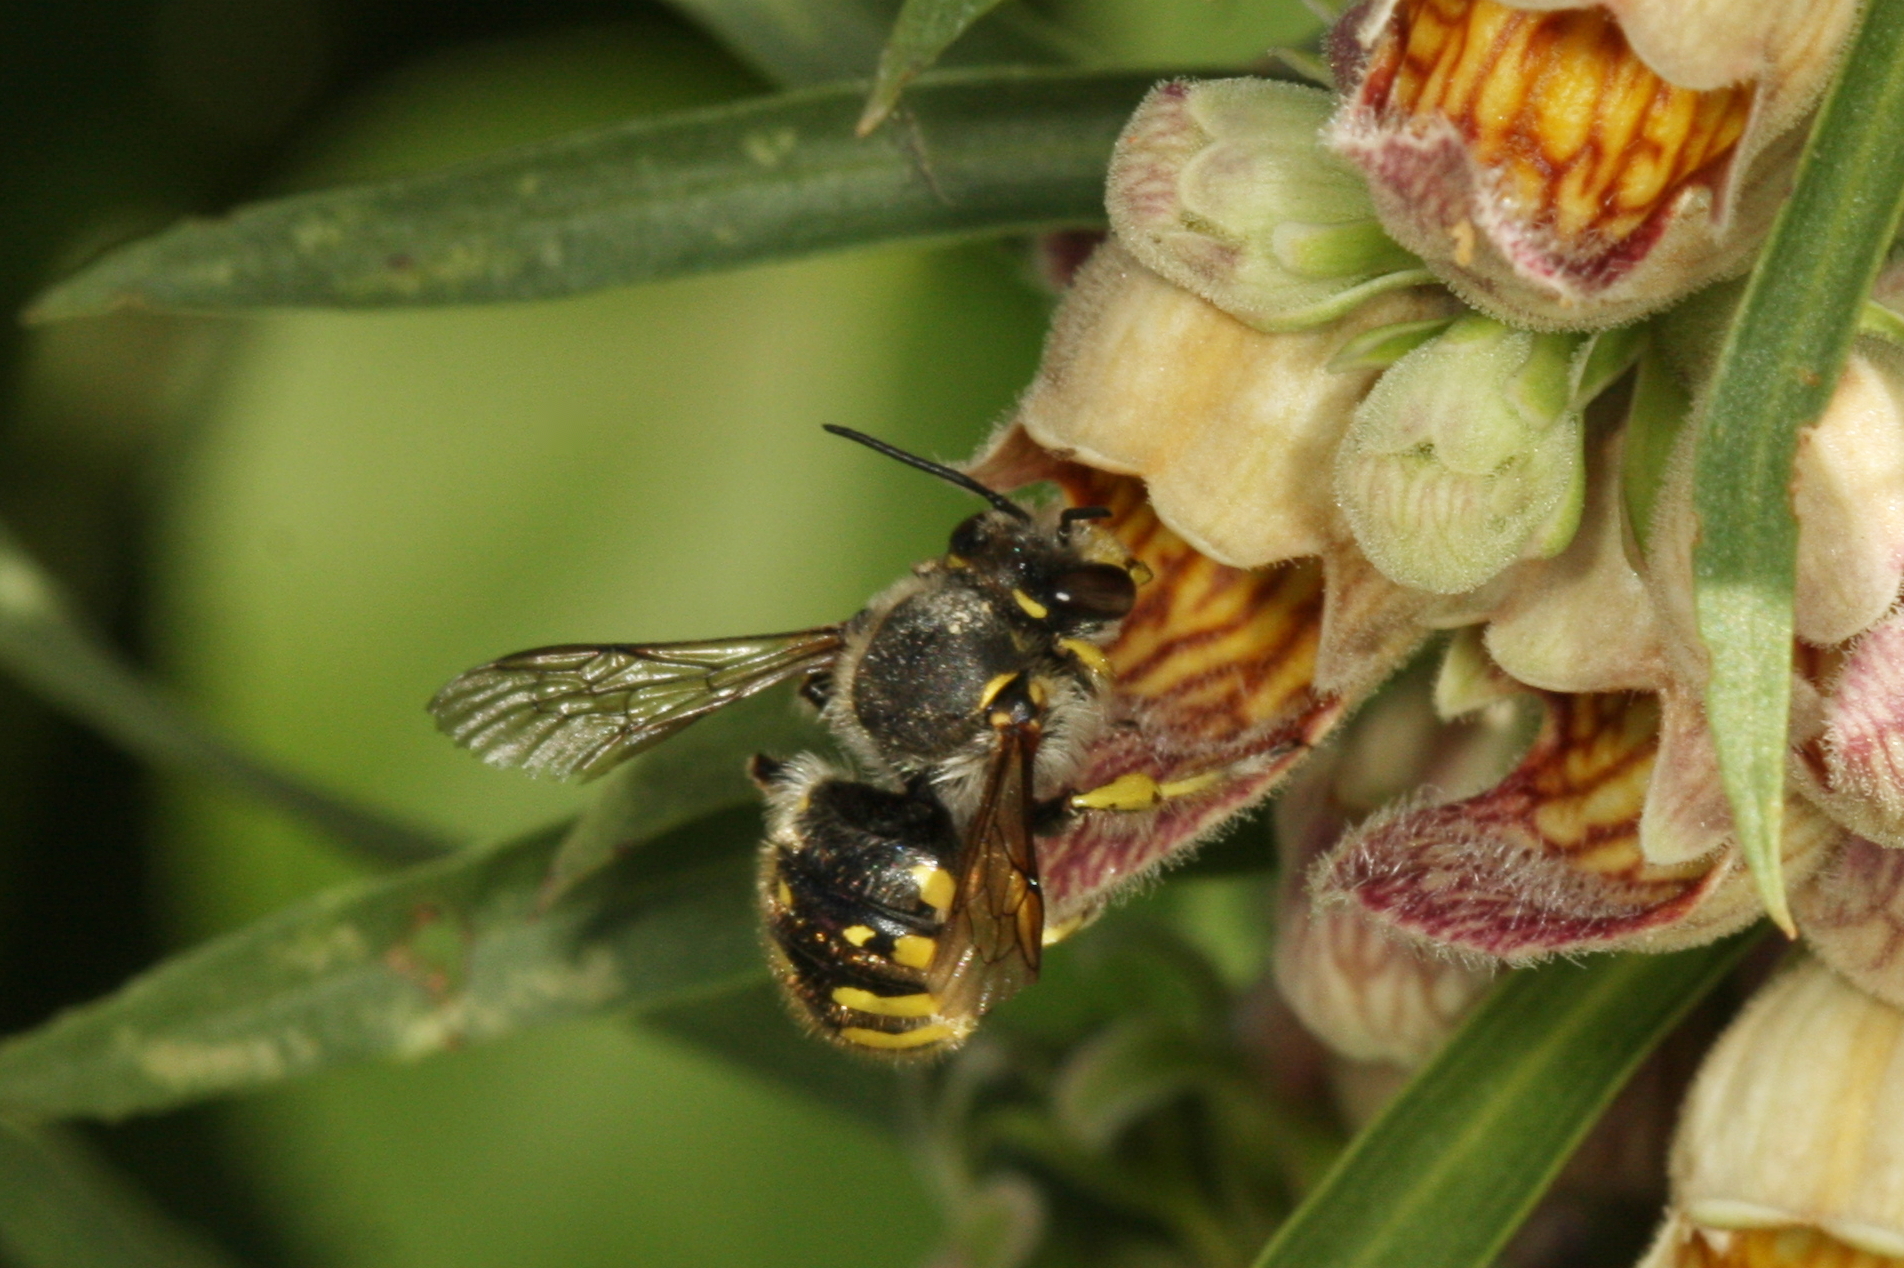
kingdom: Animalia
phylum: Arthropoda
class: Insecta
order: Hymenoptera
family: Megachilidae
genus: Anthidium
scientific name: Anthidium manicatum
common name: Wool carder bee
